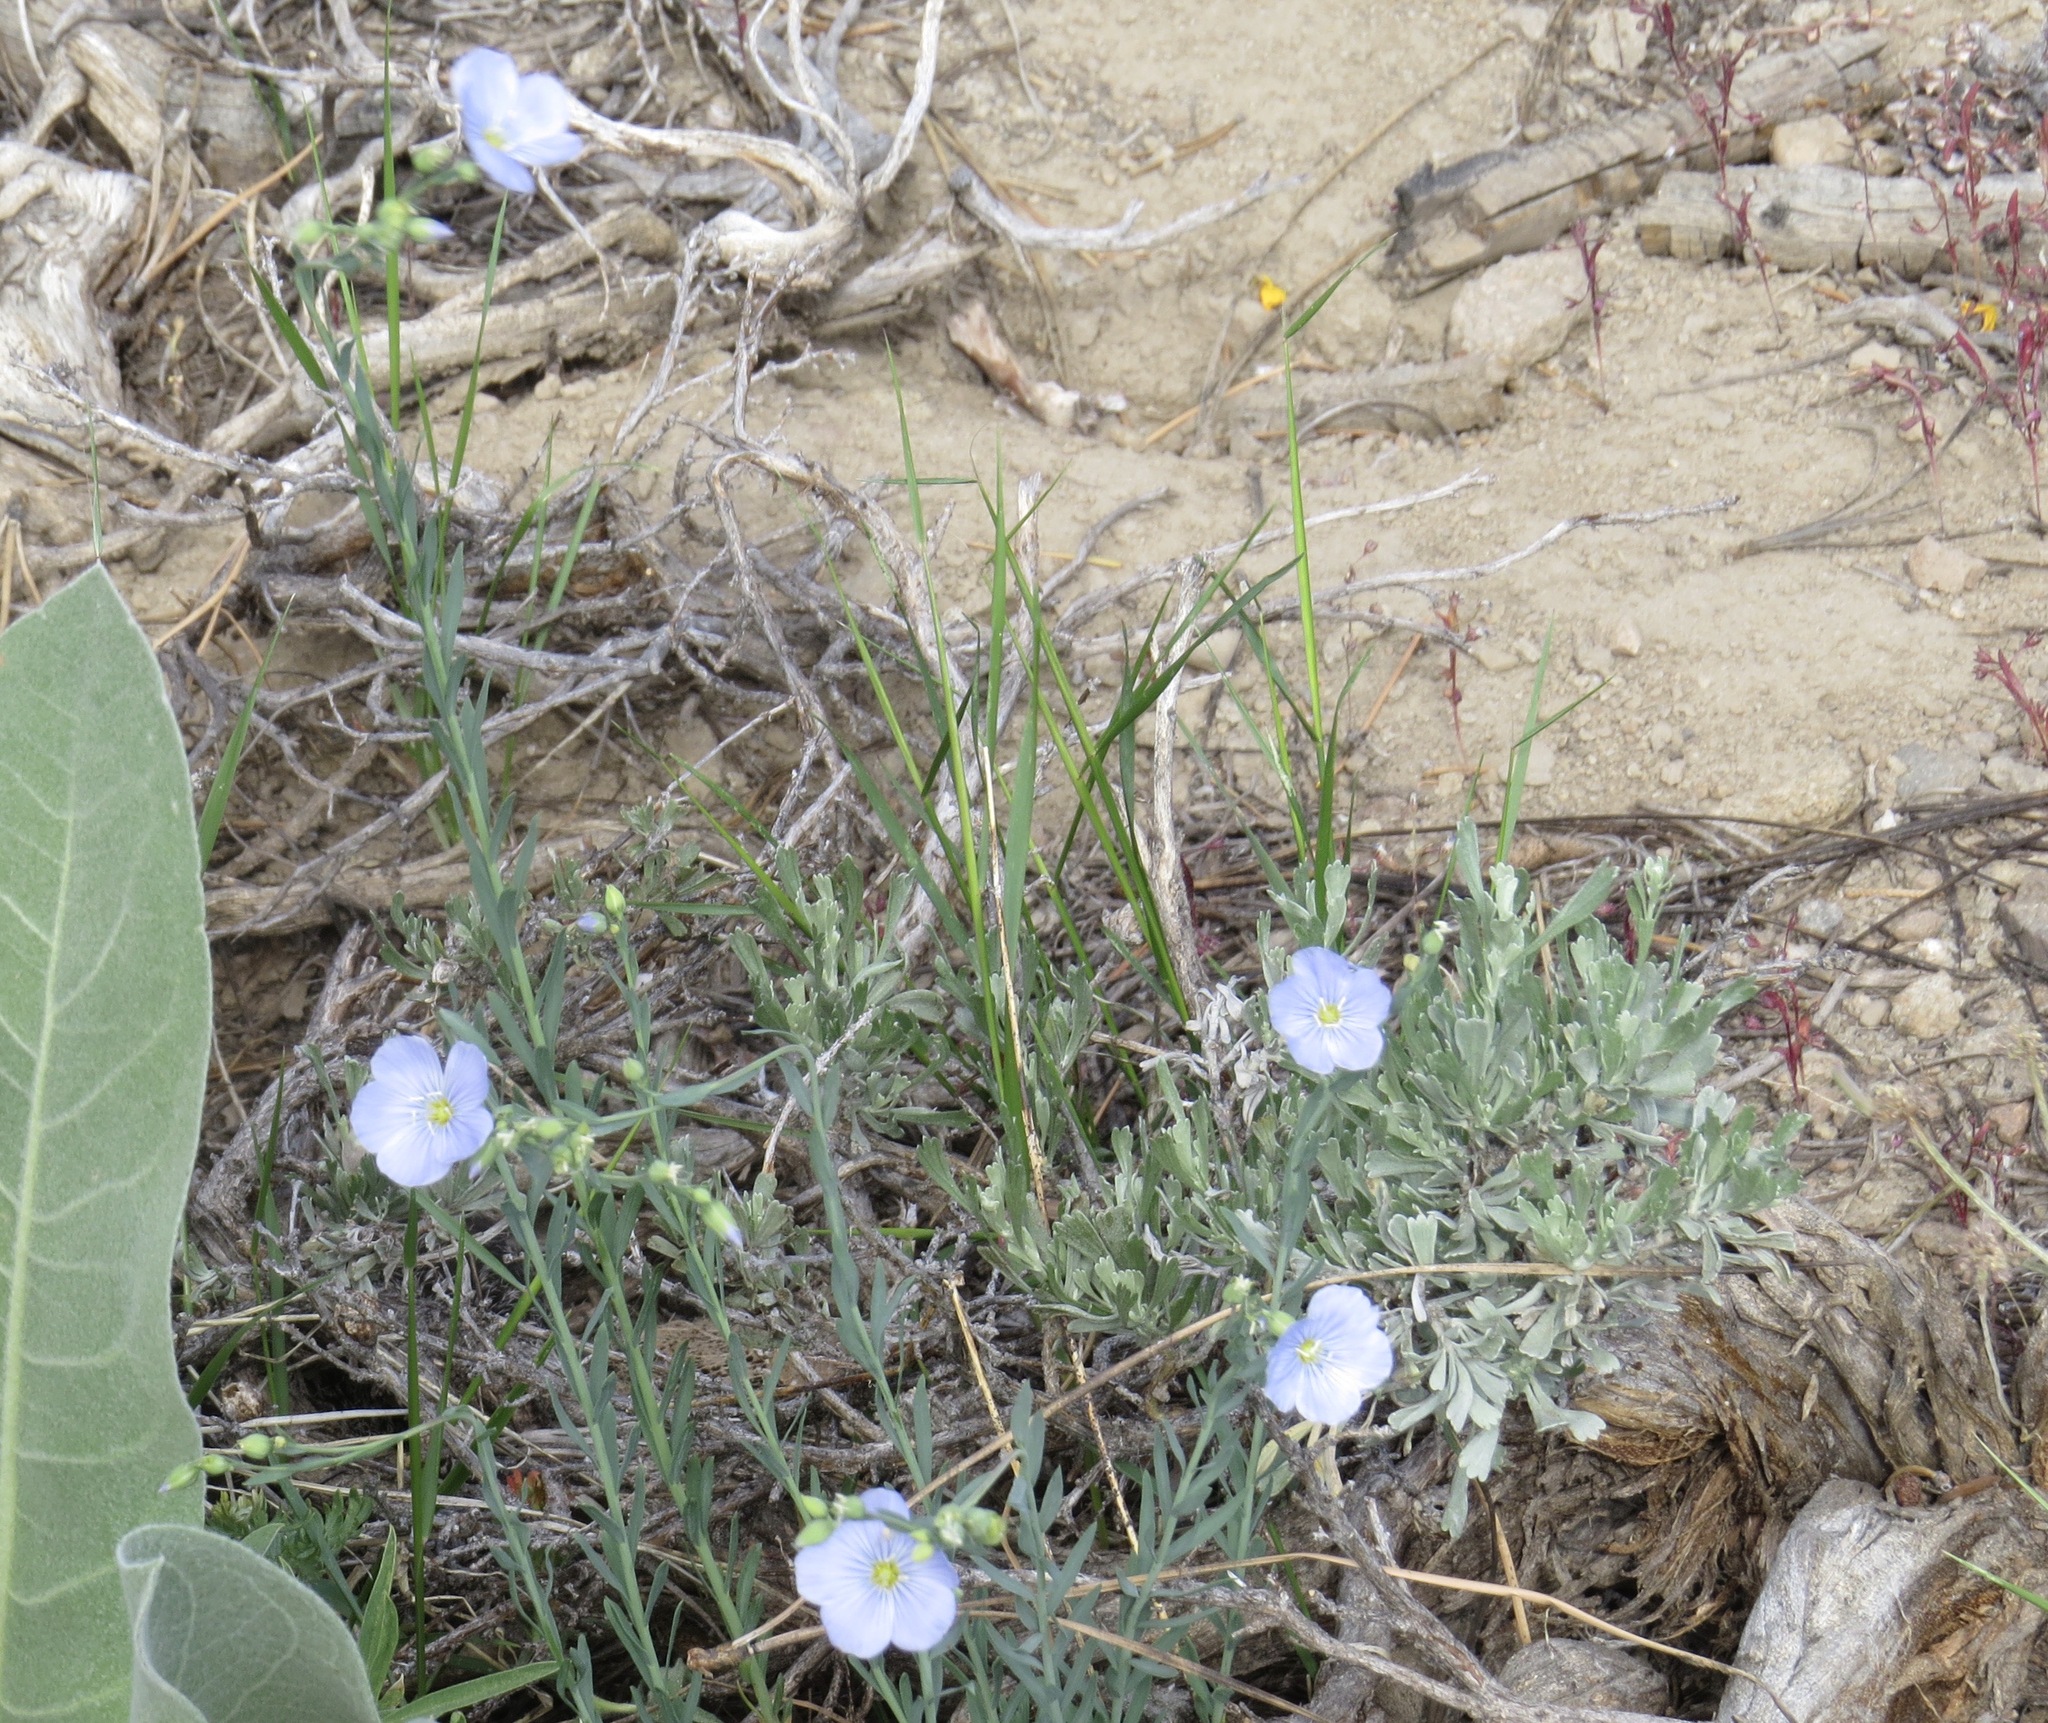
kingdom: Plantae
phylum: Tracheophyta
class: Magnoliopsida
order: Malpighiales
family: Linaceae
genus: Linum
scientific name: Linum lewisii
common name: Prairie flax
